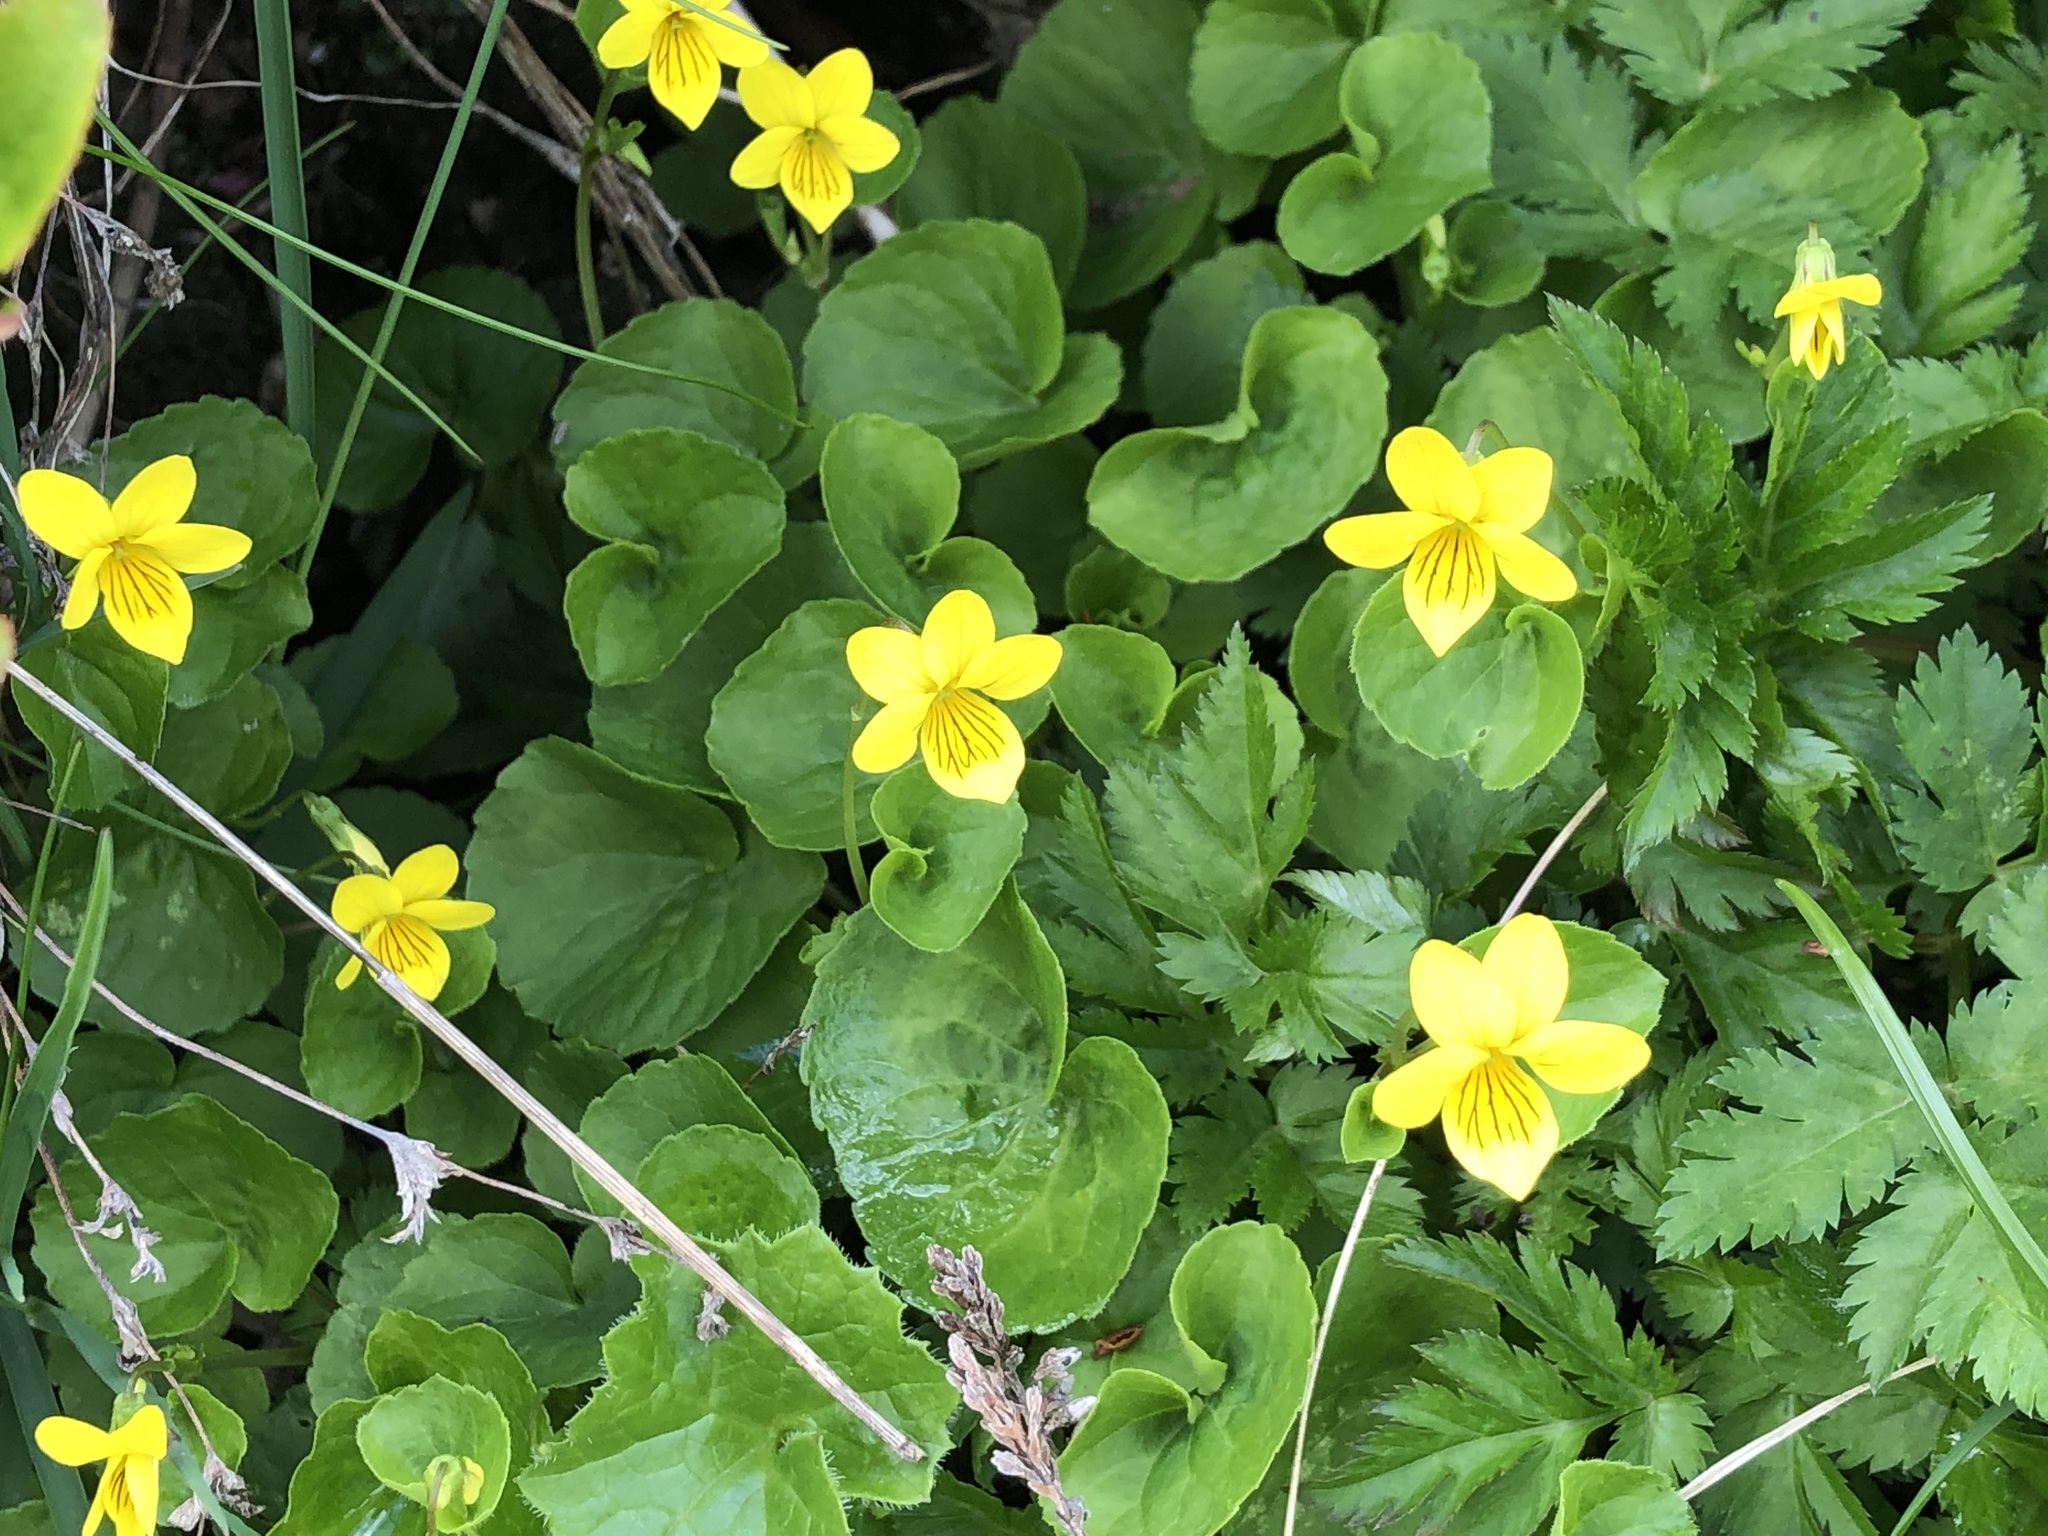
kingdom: Plantae
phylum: Tracheophyta
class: Magnoliopsida
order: Malpighiales
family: Violaceae
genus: Viola
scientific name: Viola biflora
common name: Alpine yellow violet
